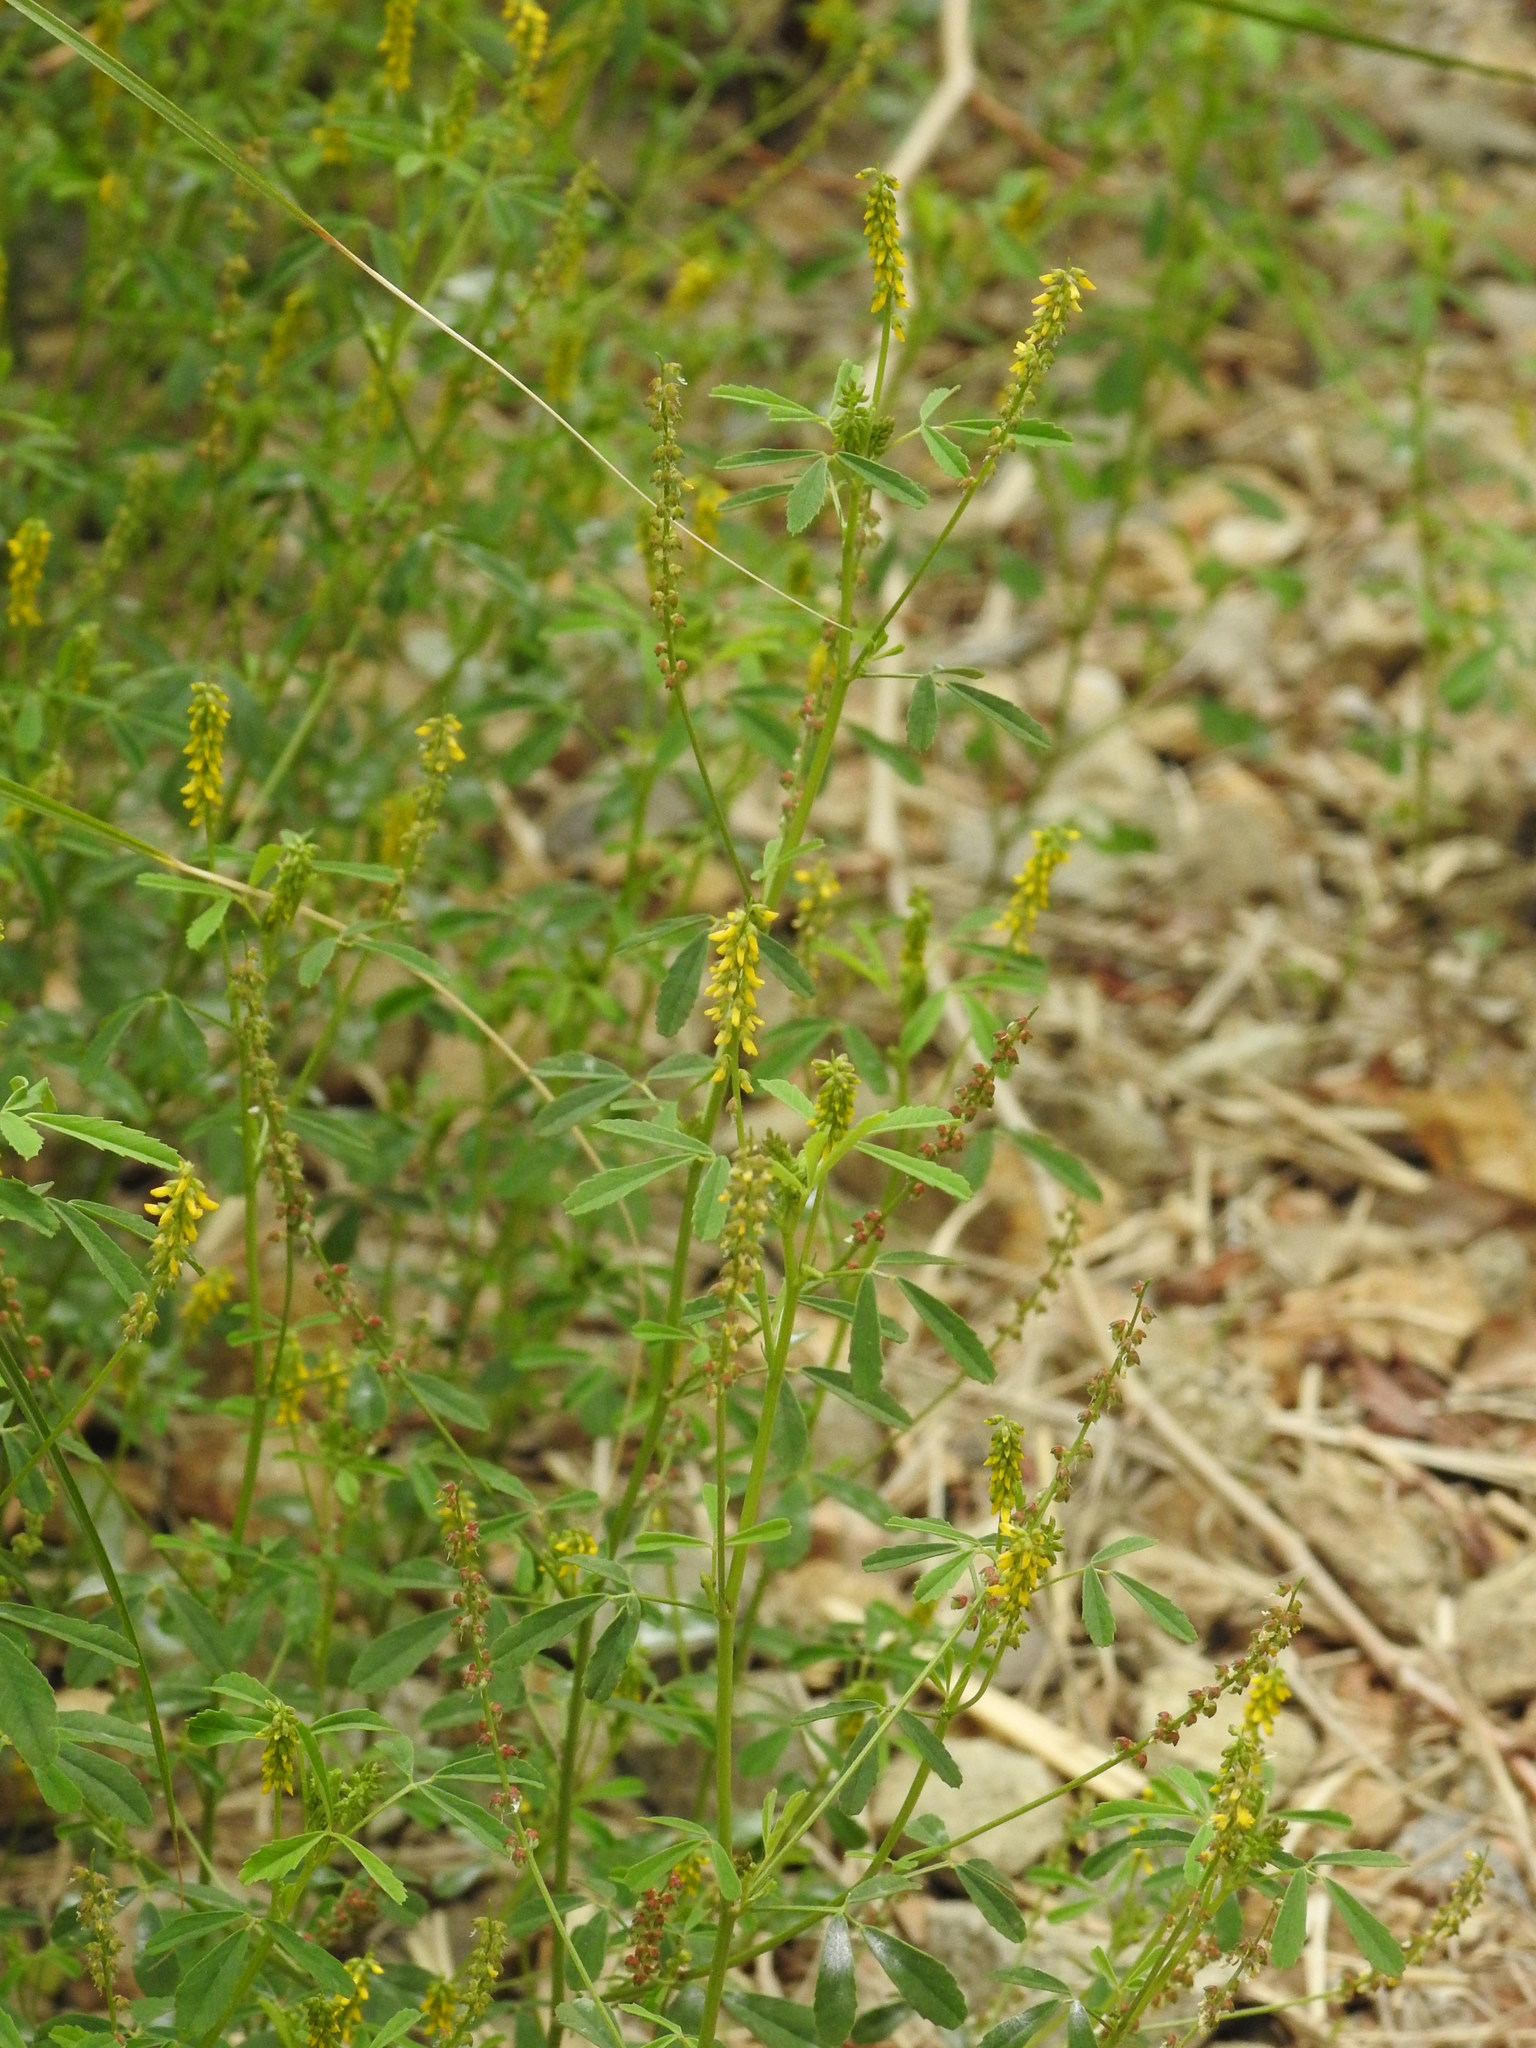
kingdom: Plantae
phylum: Tracheophyta
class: Magnoliopsida
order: Fabales
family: Fabaceae
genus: Melilotus
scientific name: Melilotus indicus
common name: Small melilot
